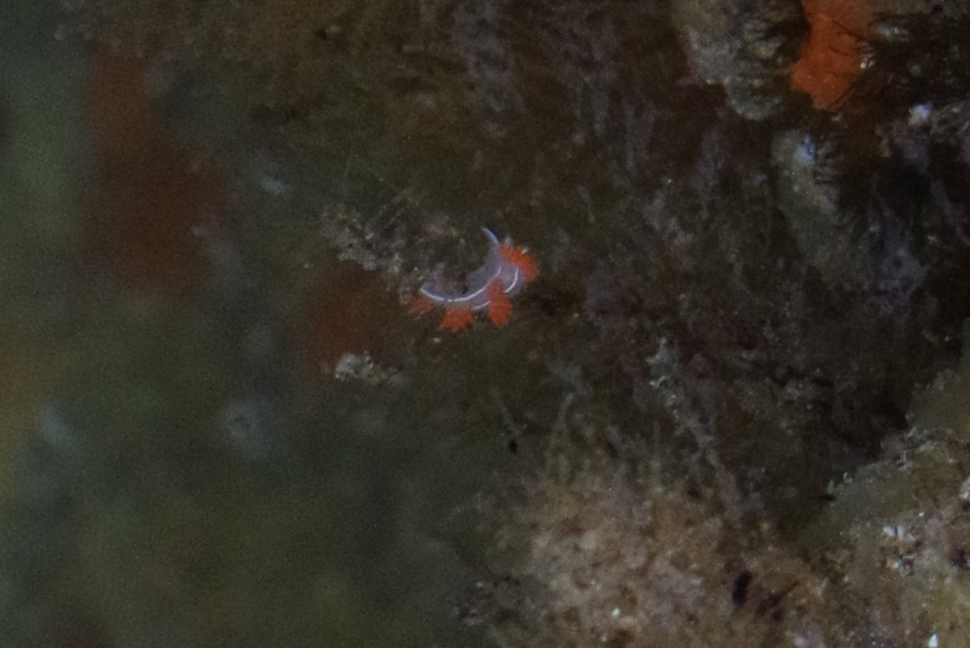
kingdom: Animalia
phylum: Mollusca
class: Gastropoda
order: Nudibranchia
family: Coryphellidae
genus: Coryphella
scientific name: Coryphella trilineata
